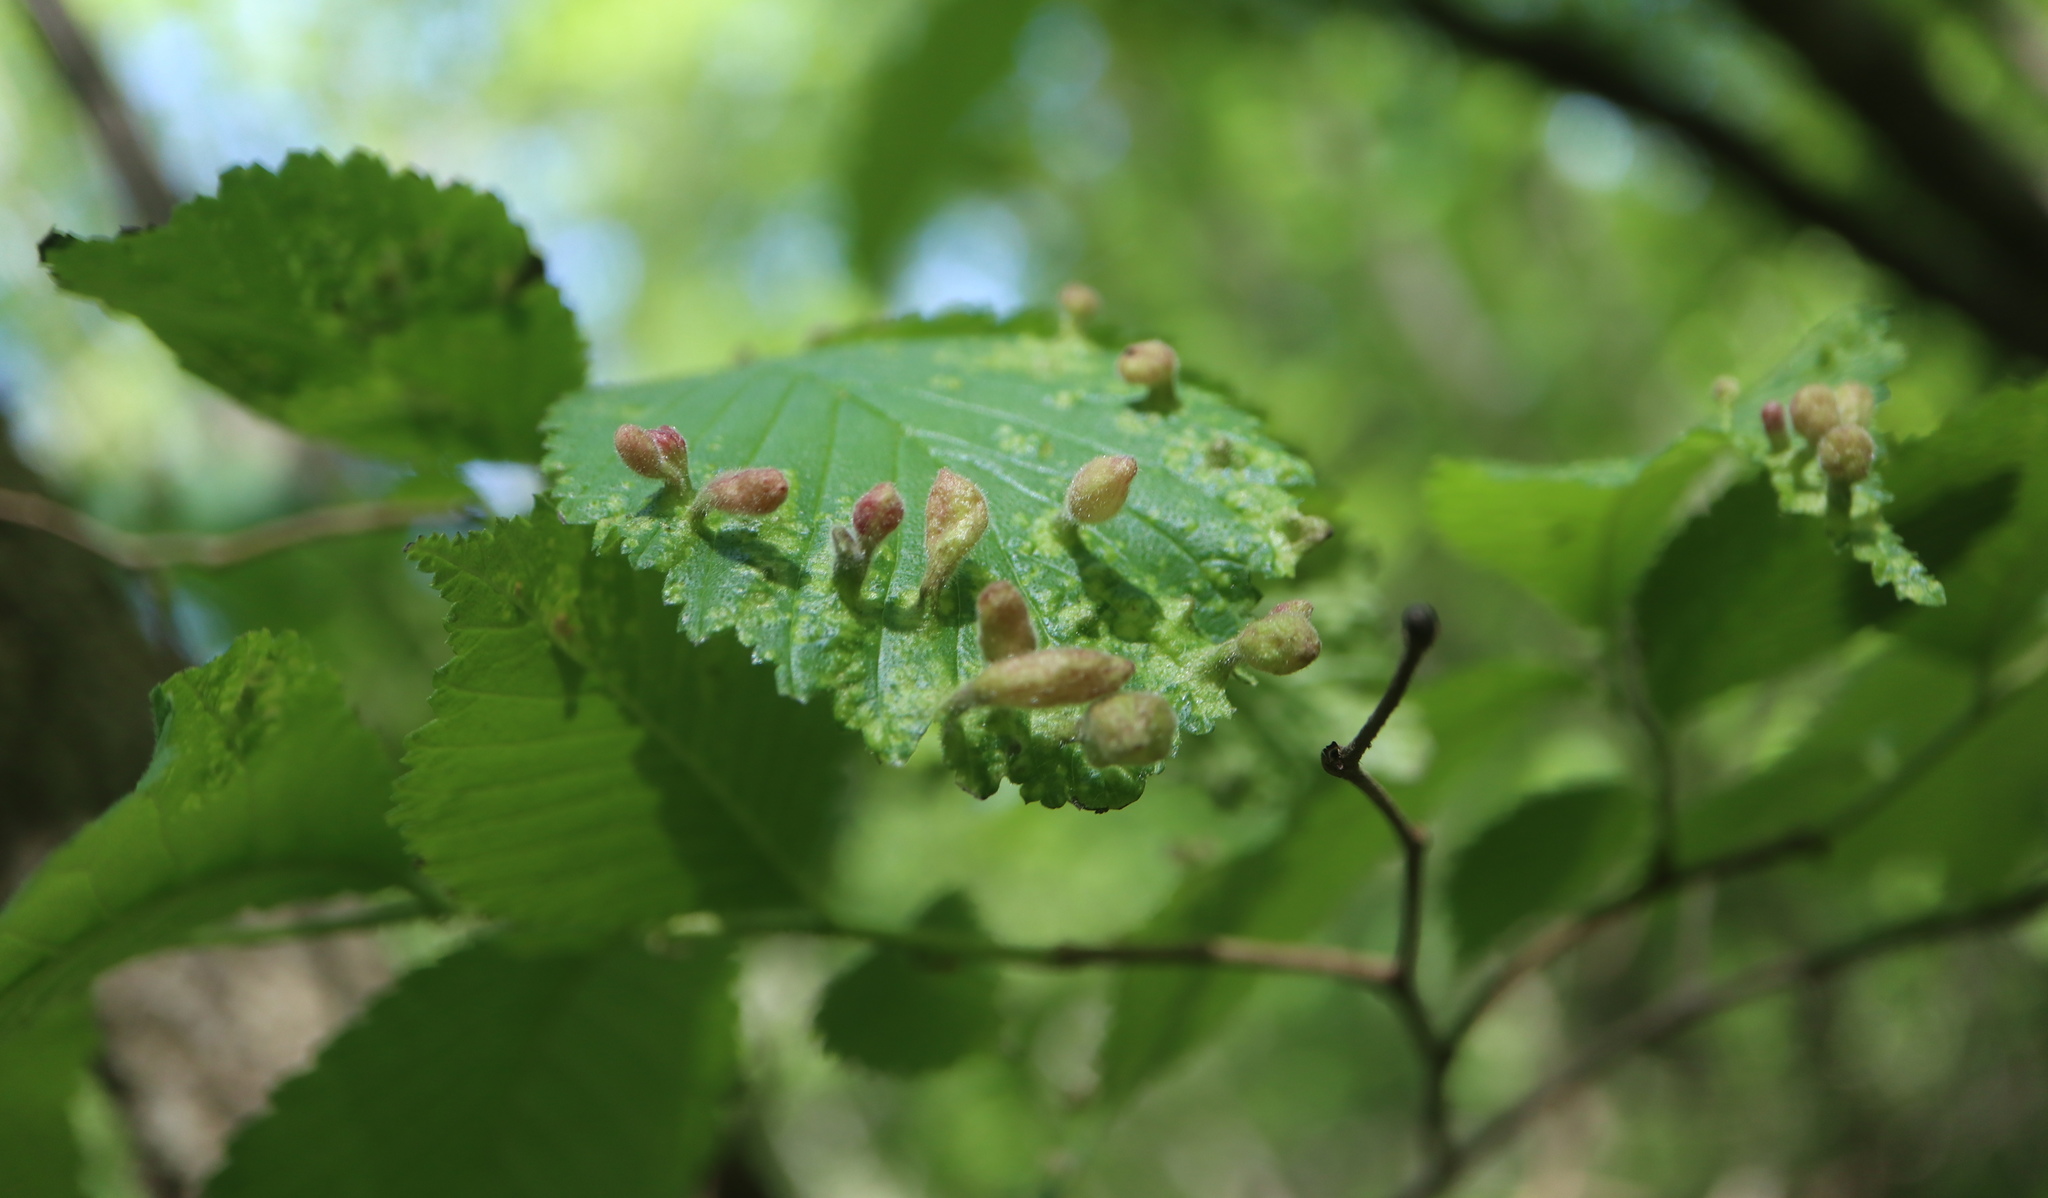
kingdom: Animalia
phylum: Arthropoda
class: Insecta
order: Hemiptera
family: Aphididae
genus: Tetraneura
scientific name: Tetraneura nigriabdominalis
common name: Aphid
